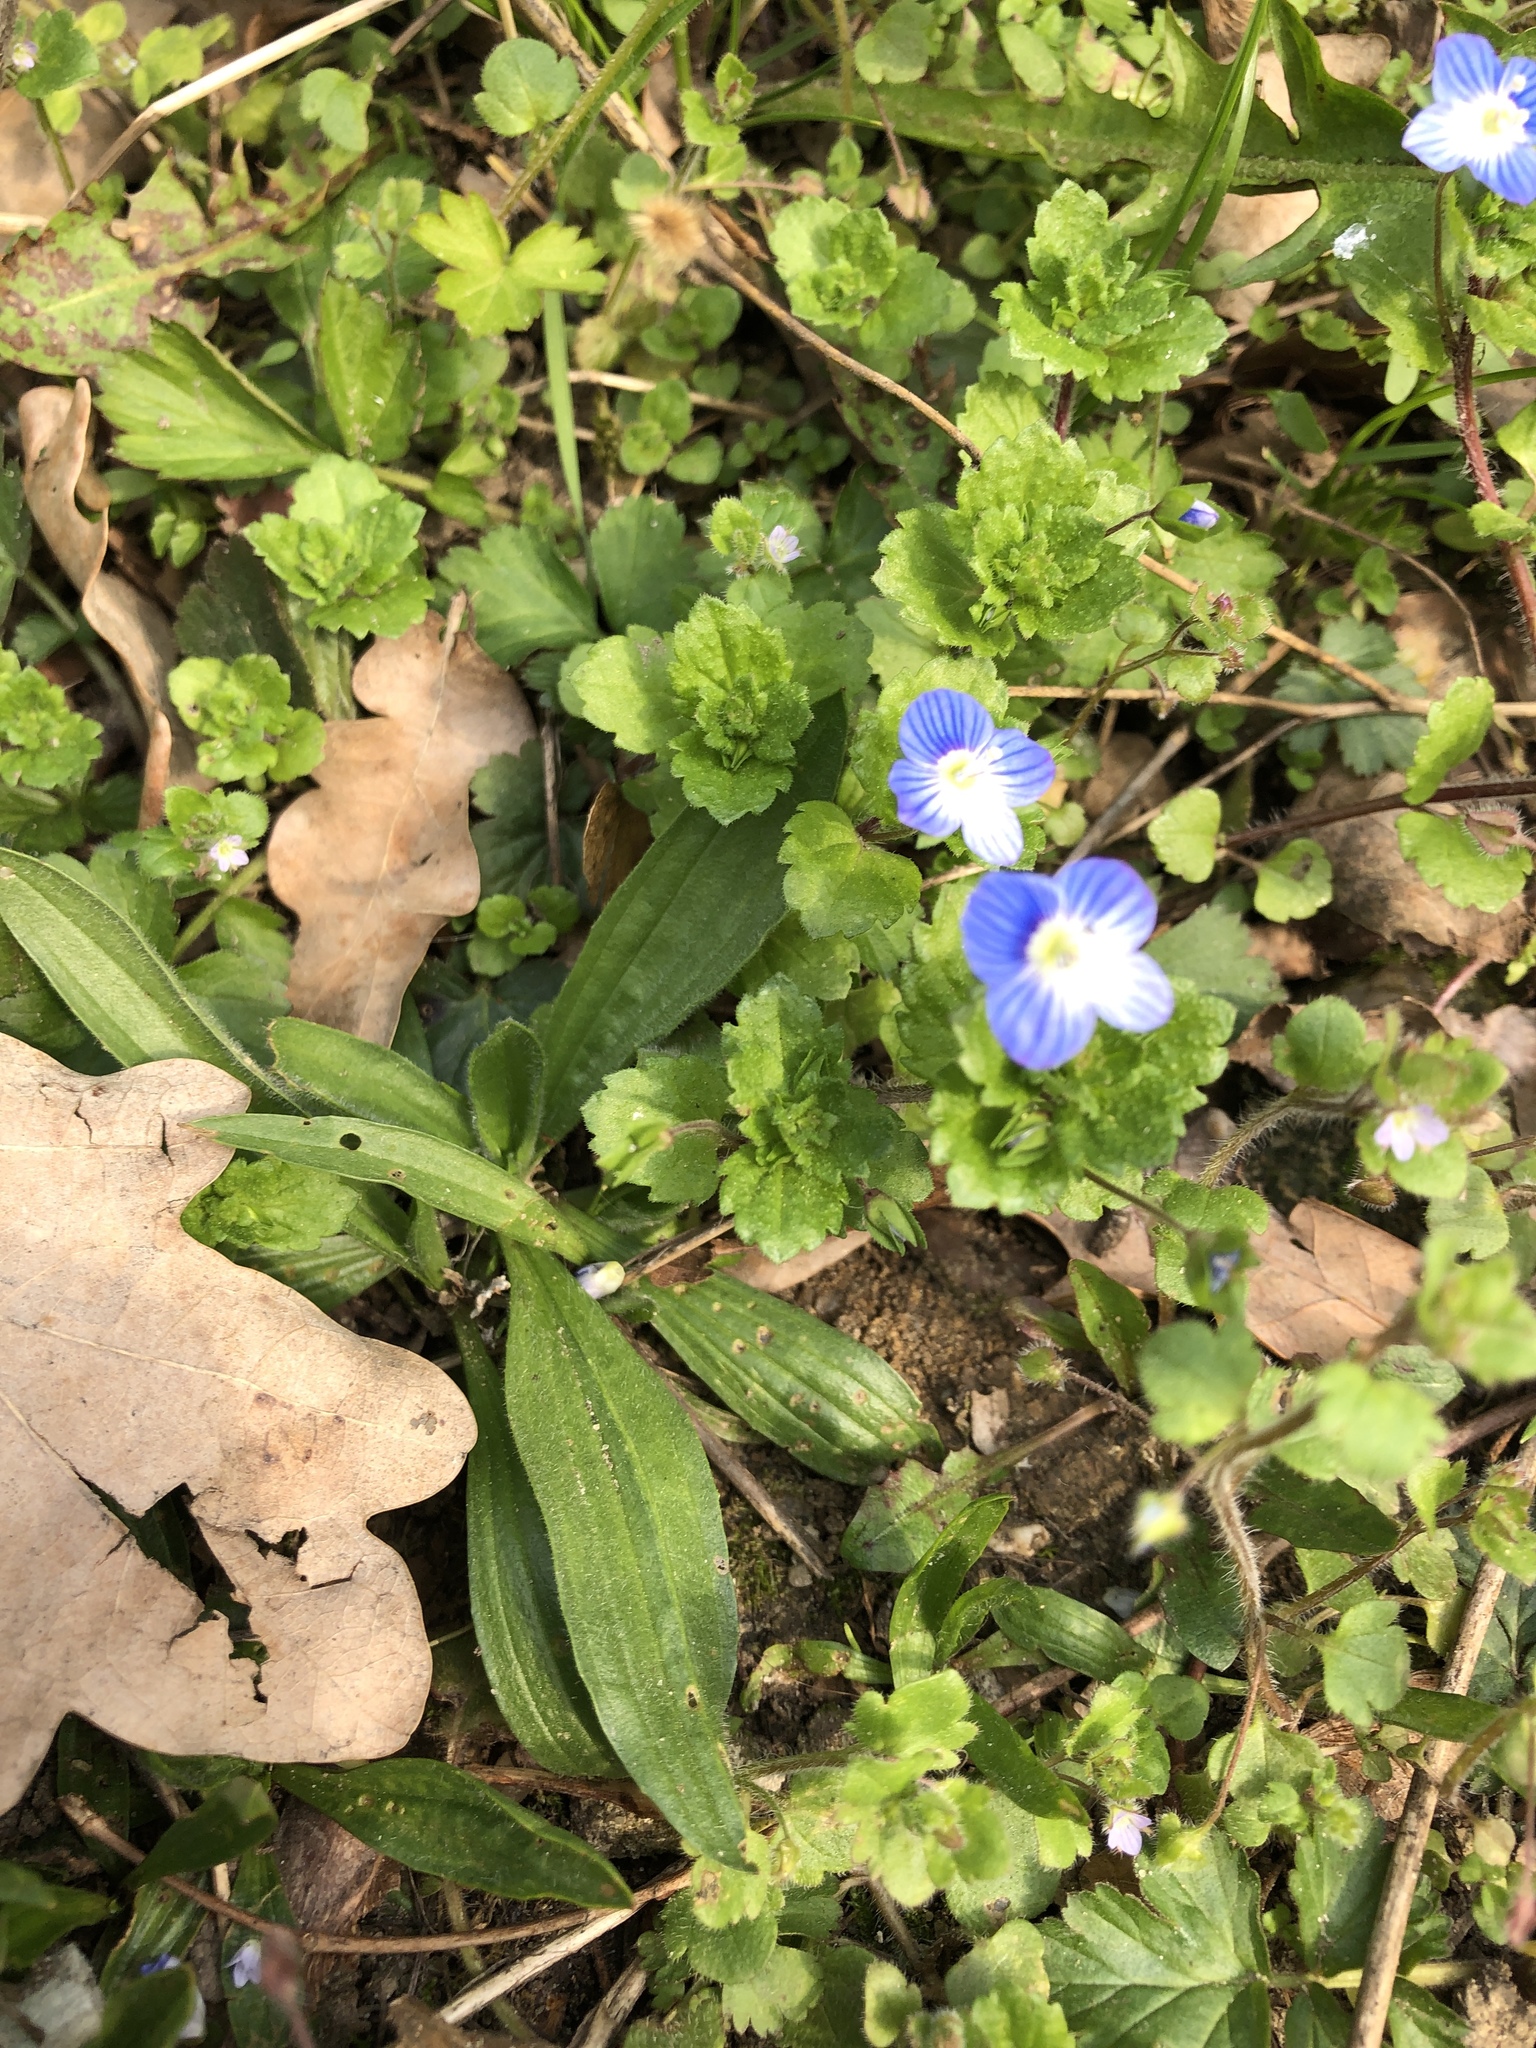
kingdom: Plantae
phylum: Tracheophyta
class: Magnoliopsida
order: Lamiales
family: Plantaginaceae
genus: Veronica
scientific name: Veronica persica
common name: Common field-speedwell
